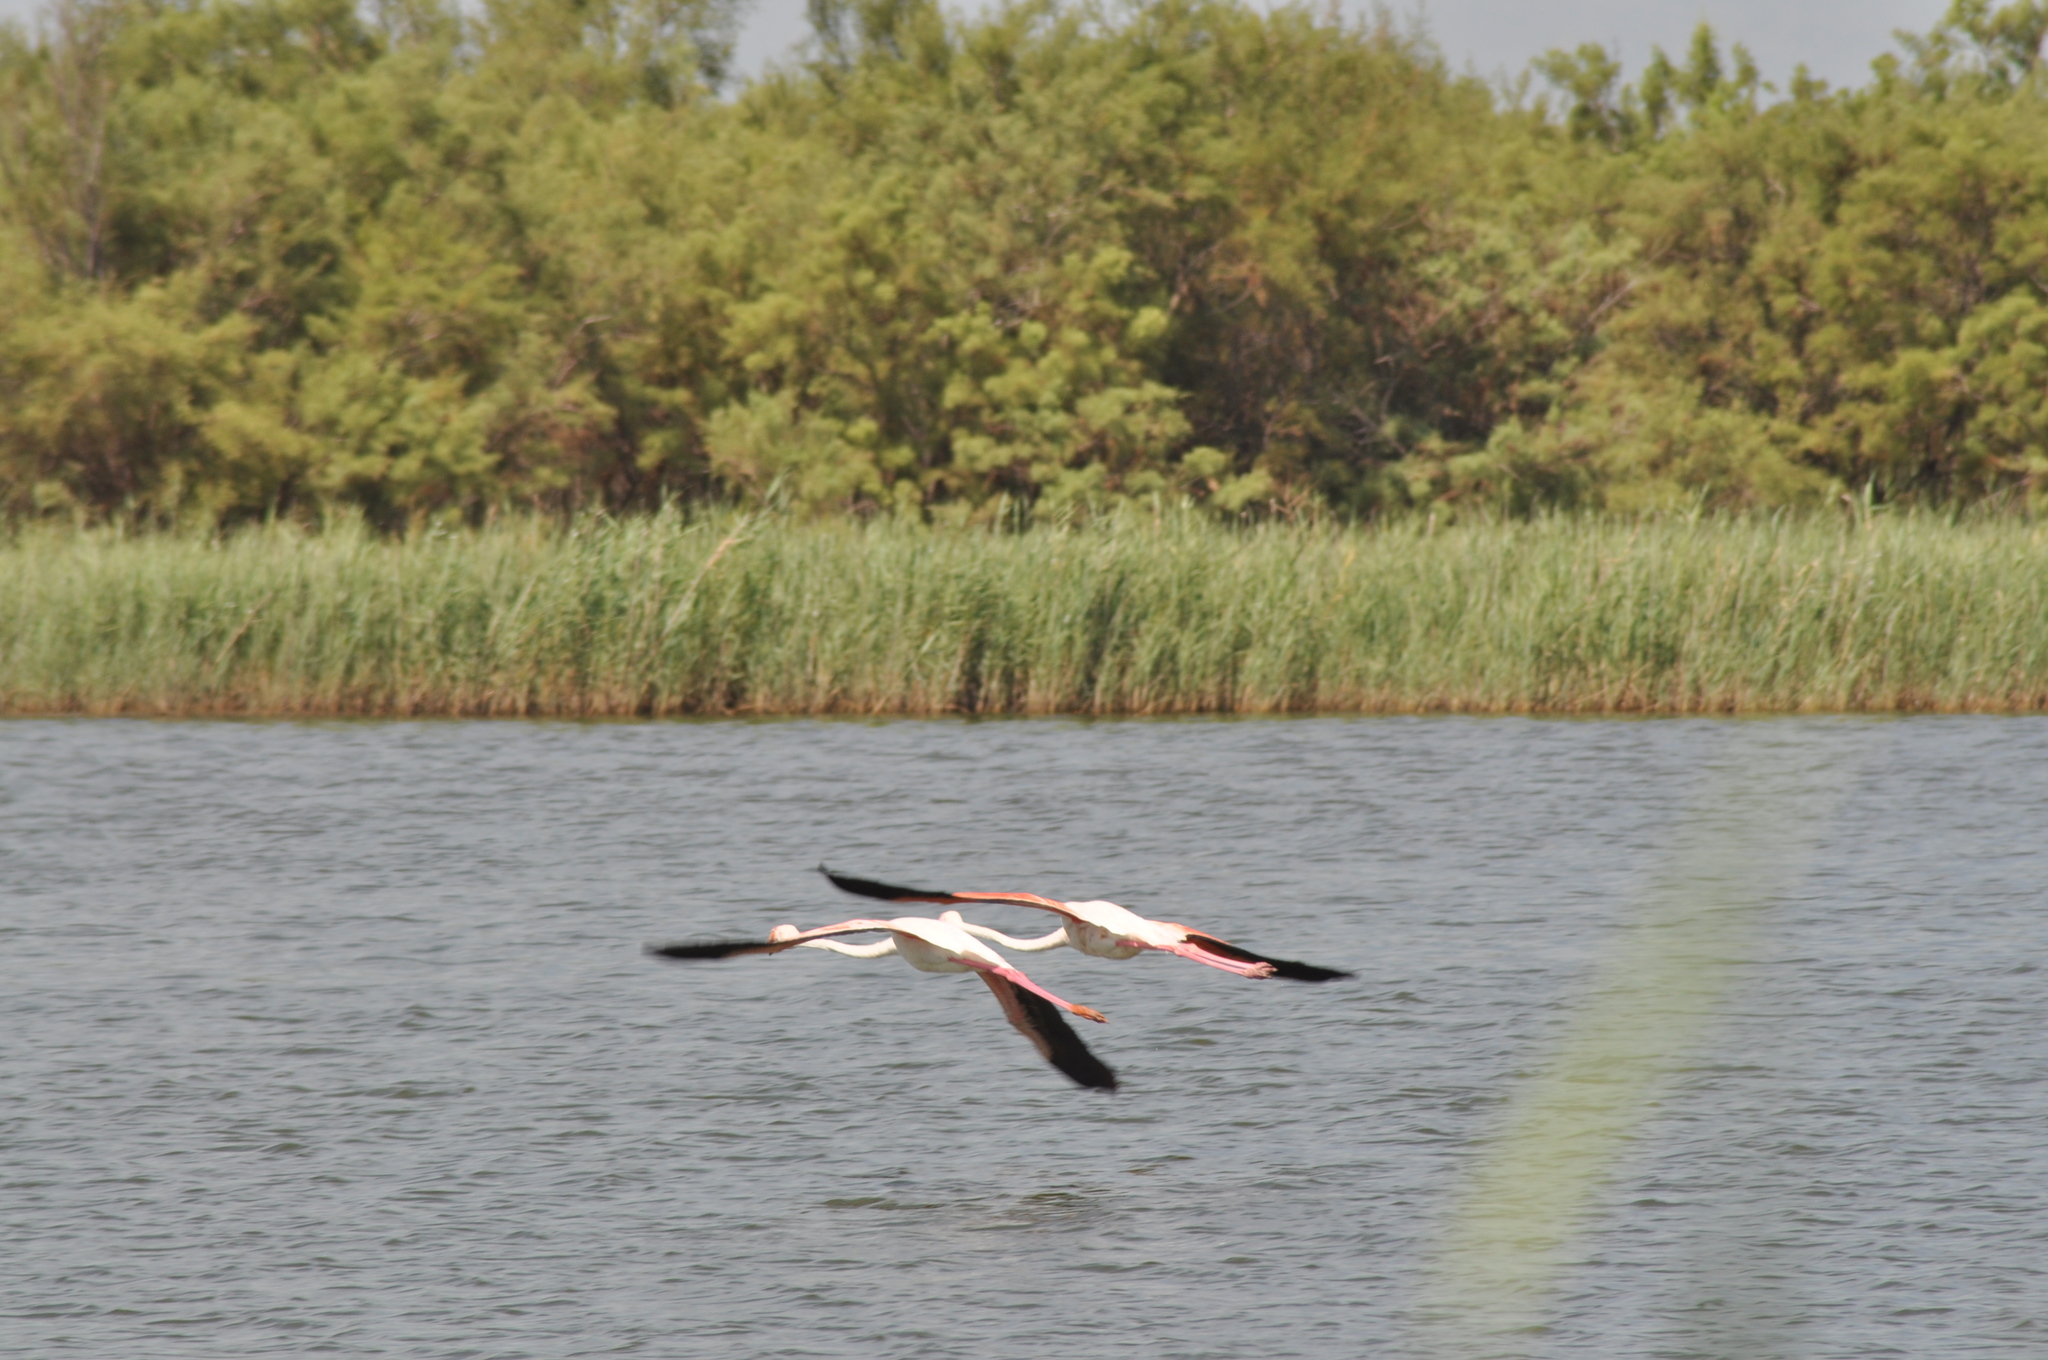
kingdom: Animalia
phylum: Chordata
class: Aves
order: Phoenicopteriformes
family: Phoenicopteridae
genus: Phoenicopterus
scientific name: Phoenicopterus roseus
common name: Greater flamingo
